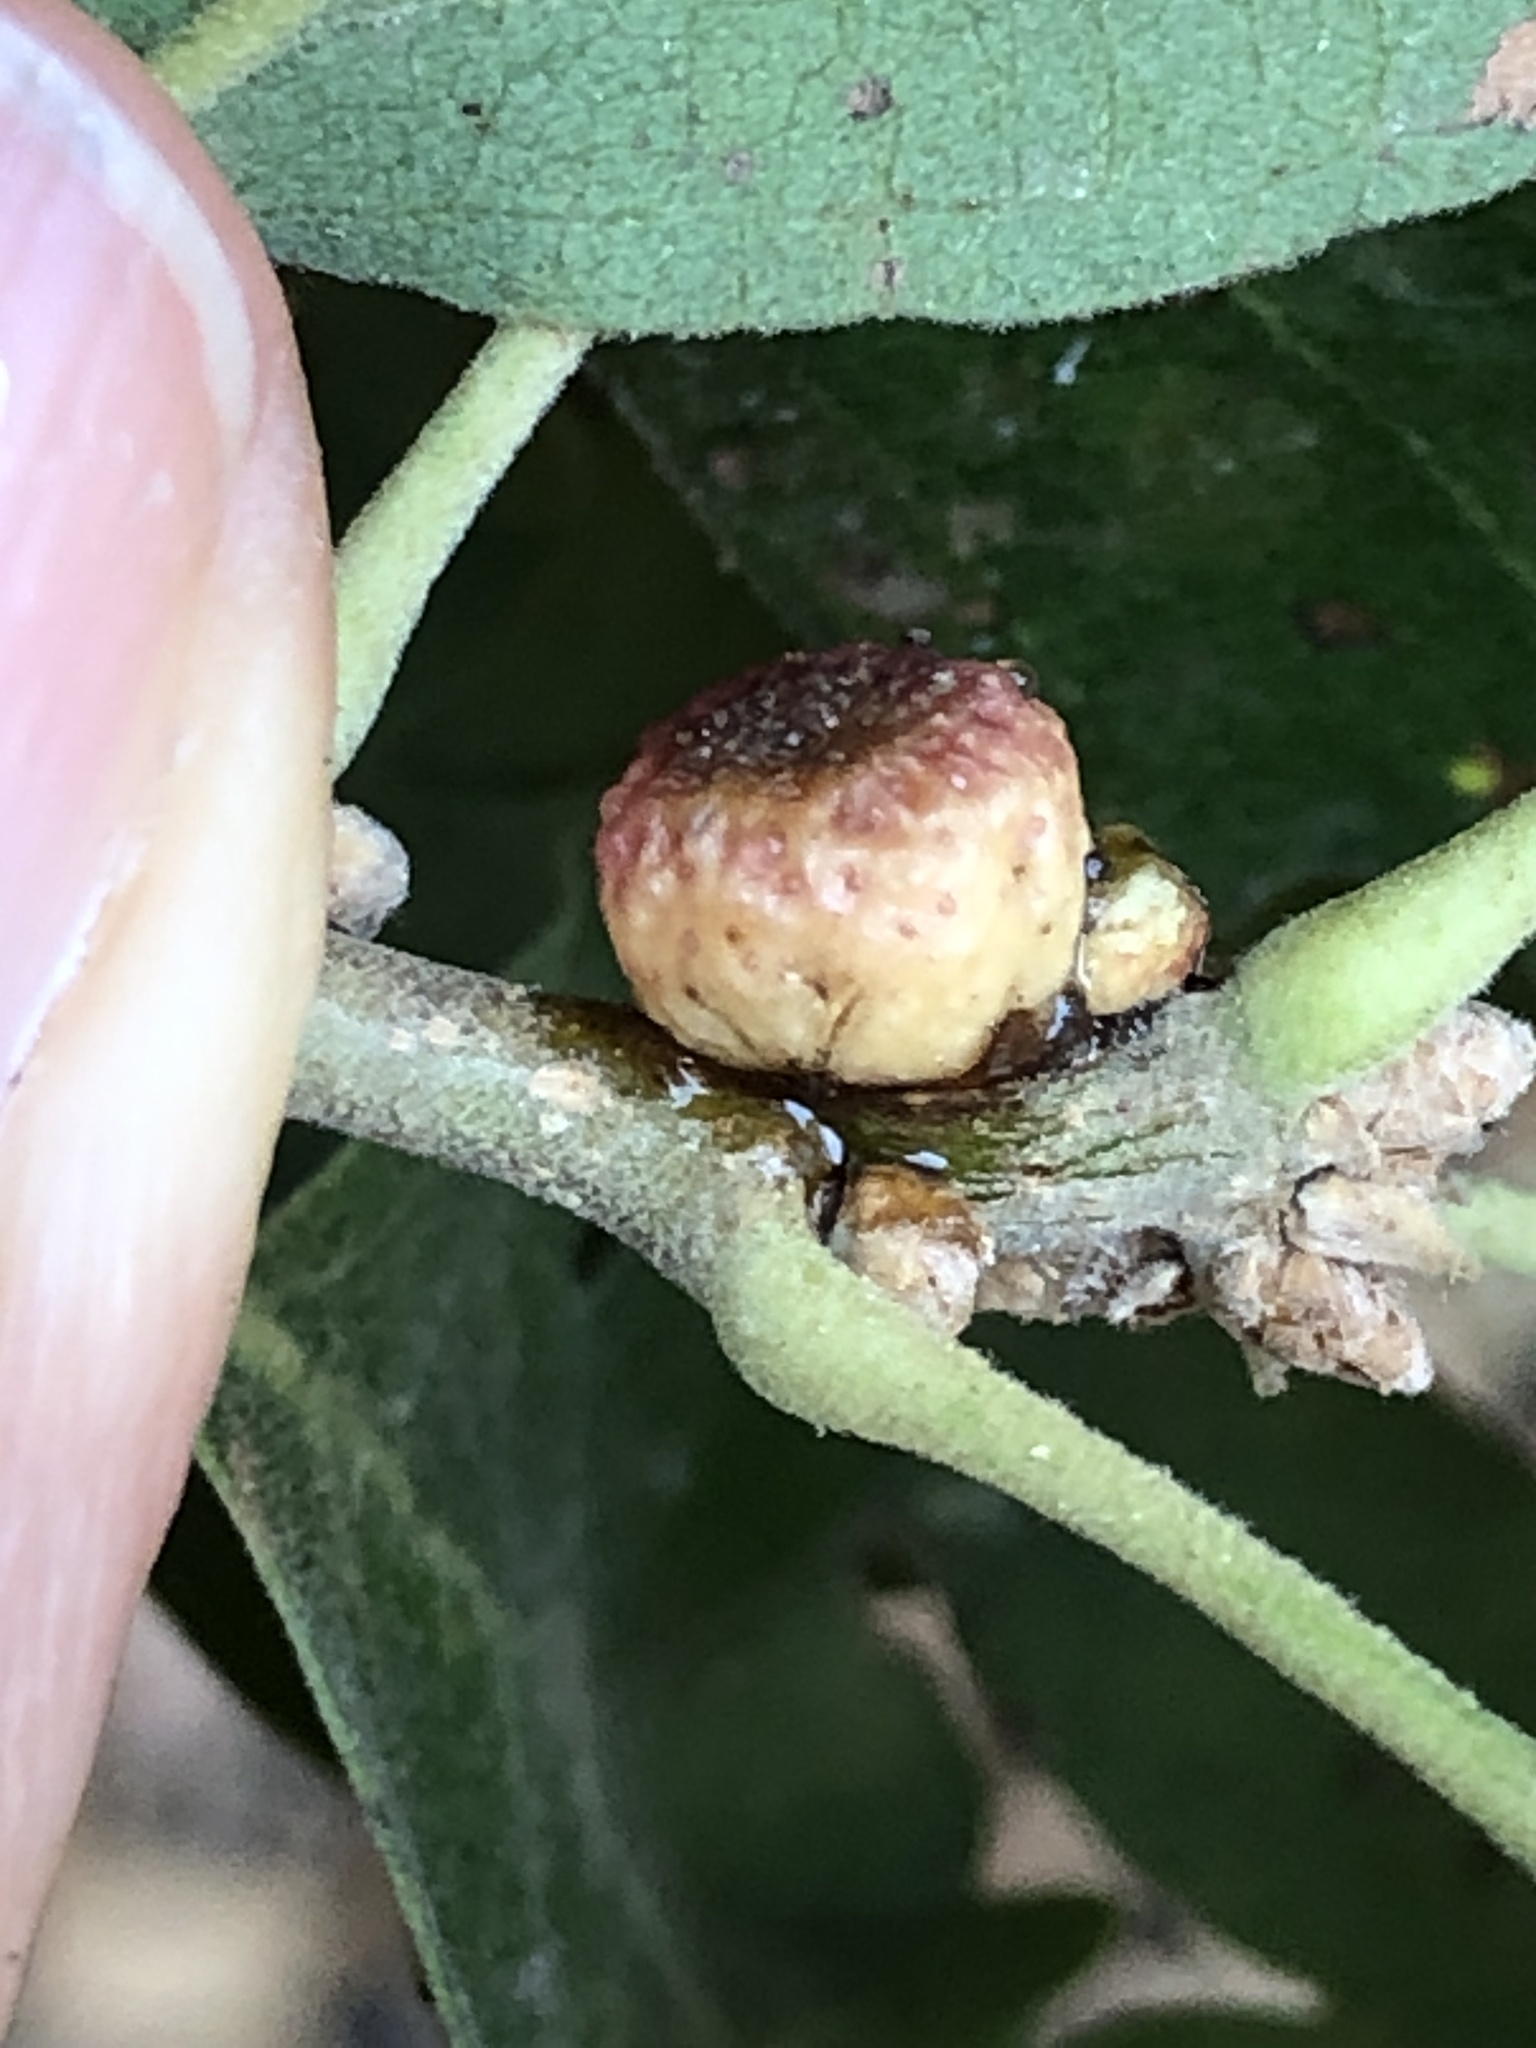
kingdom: Animalia
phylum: Arthropoda
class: Insecta
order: Hymenoptera
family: Cynipidae
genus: Disholcaspis
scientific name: Disholcaspis
